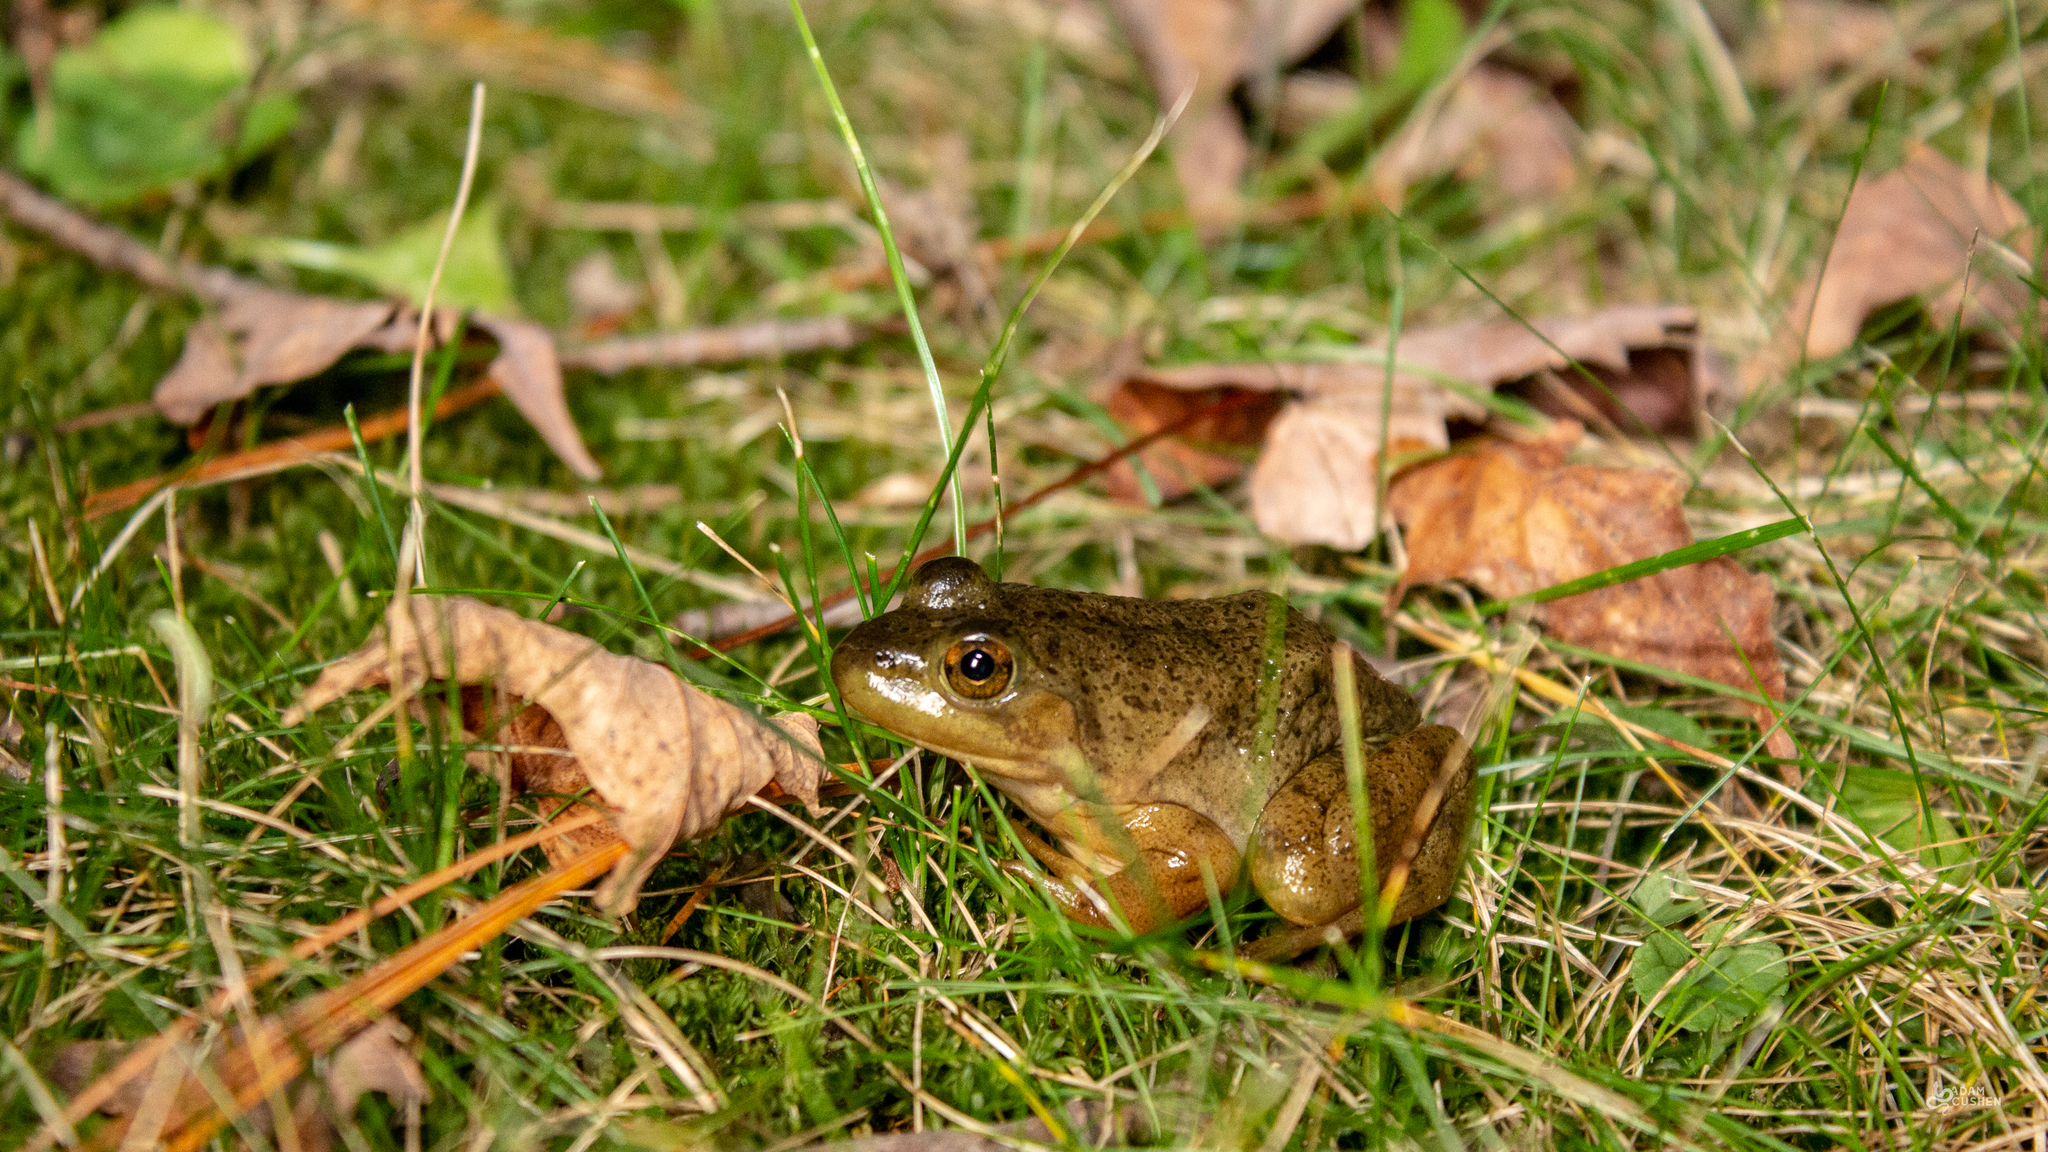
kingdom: Animalia
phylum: Chordata
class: Amphibia
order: Anura
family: Ranidae
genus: Lithobates
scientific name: Lithobates catesbeianus
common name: American bullfrog
